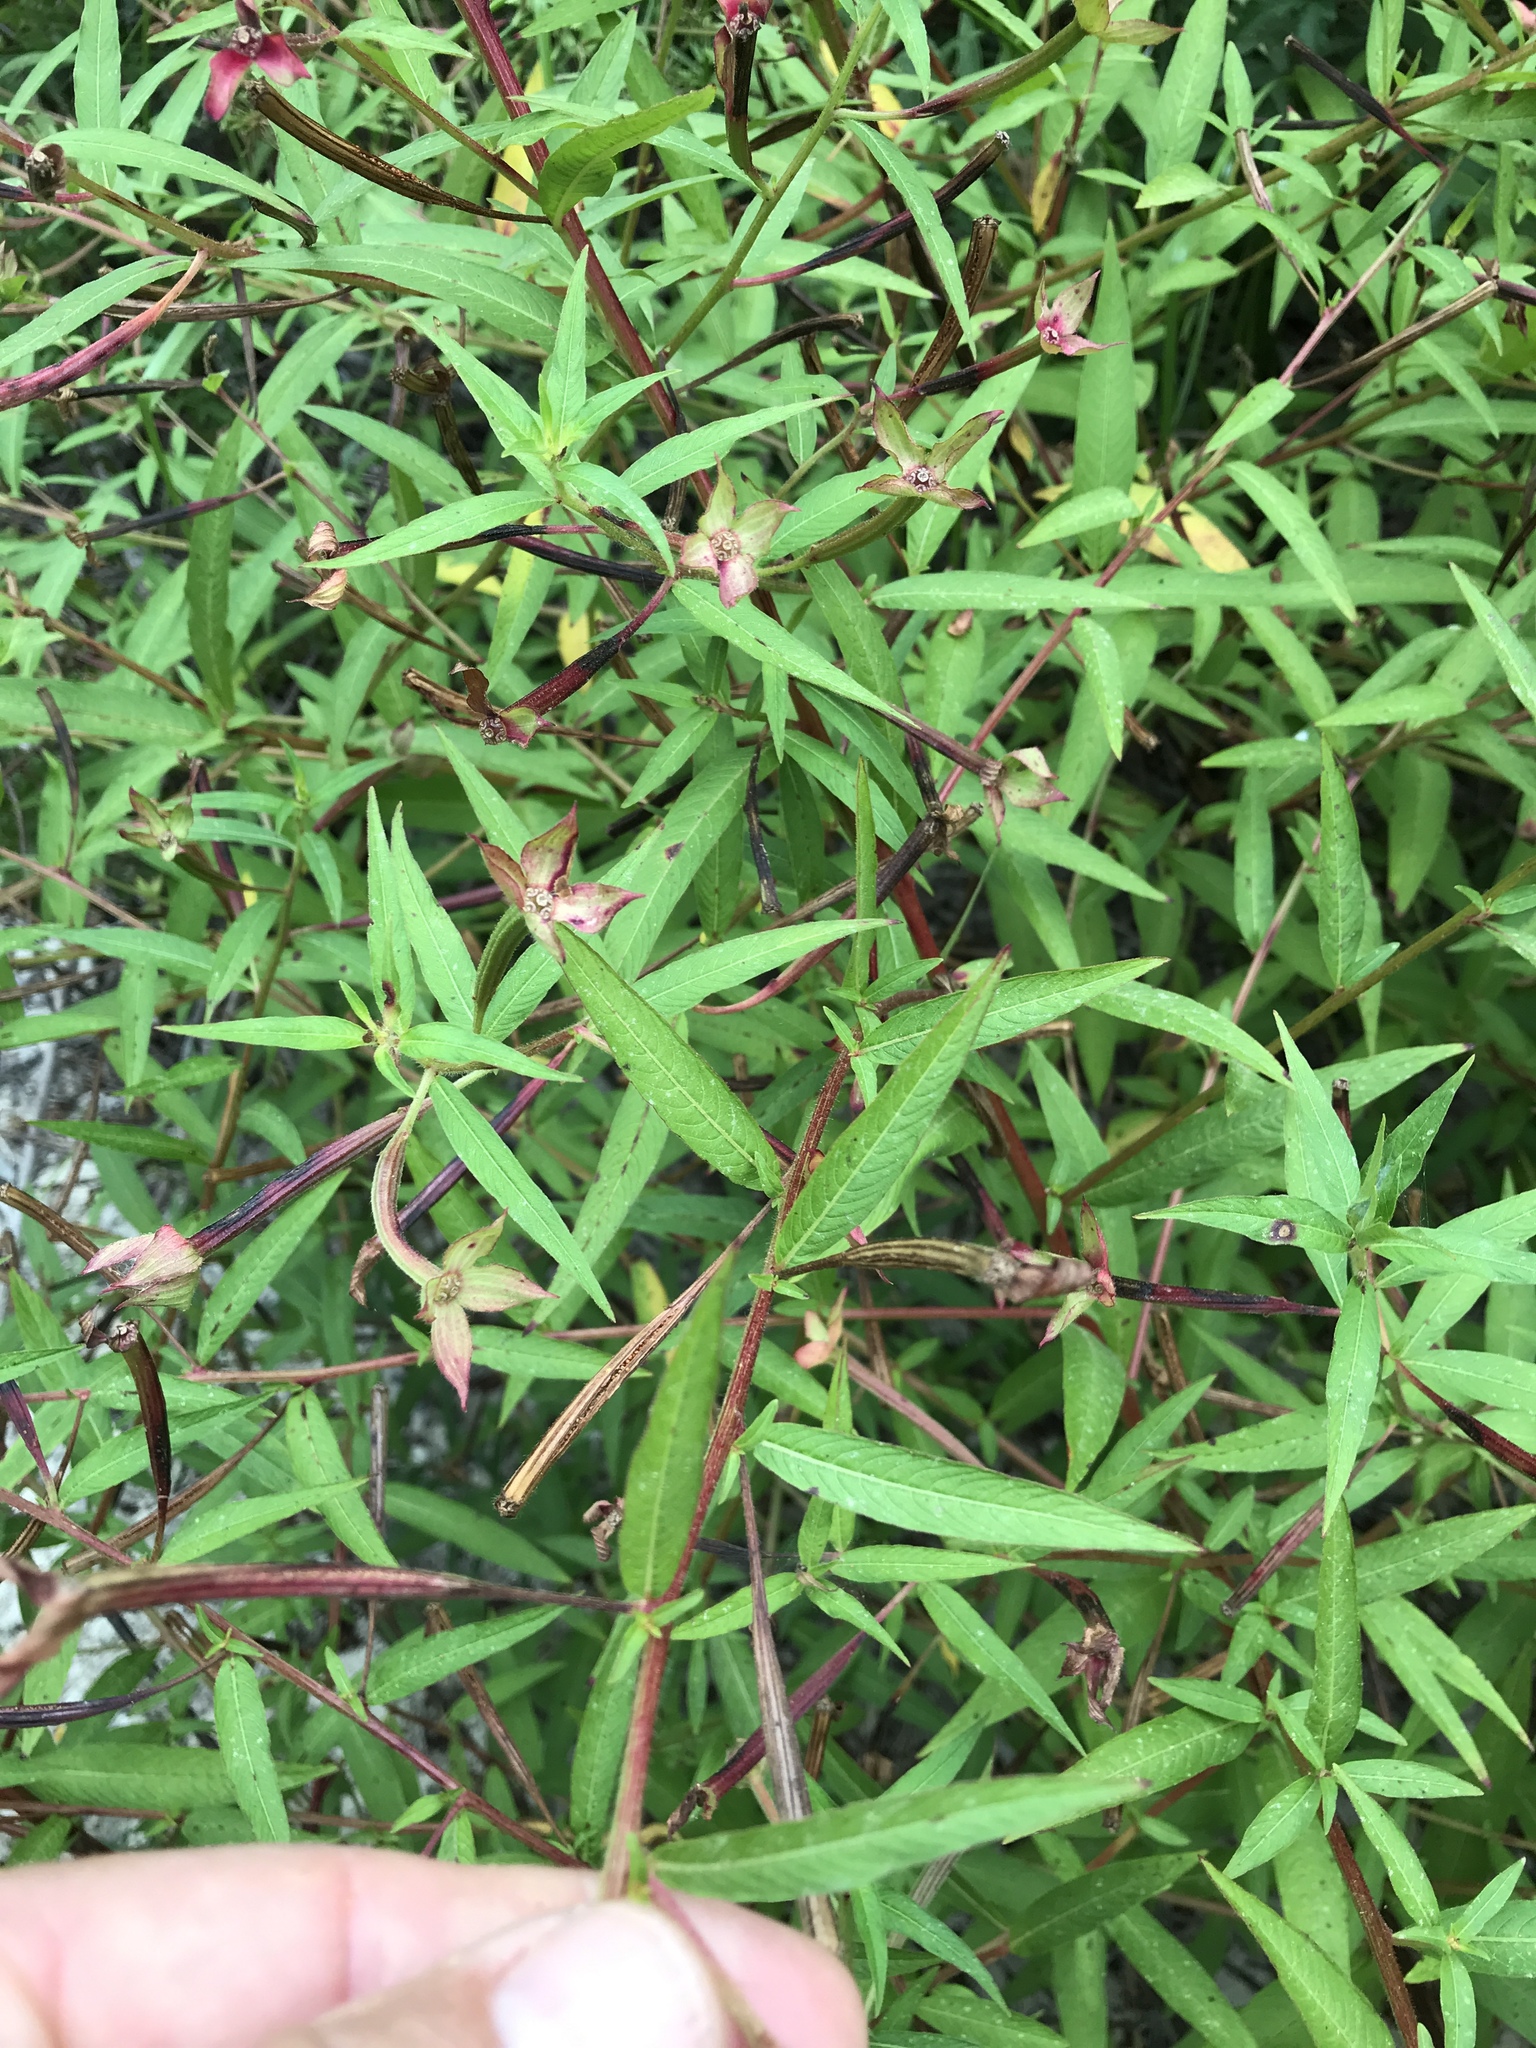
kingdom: Plantae
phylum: Tracheophyta
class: Magnoliopsida
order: Myrtales
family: Onagraceae
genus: Ludwigia
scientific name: Ludwigia octovalvis
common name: Water-primrose
